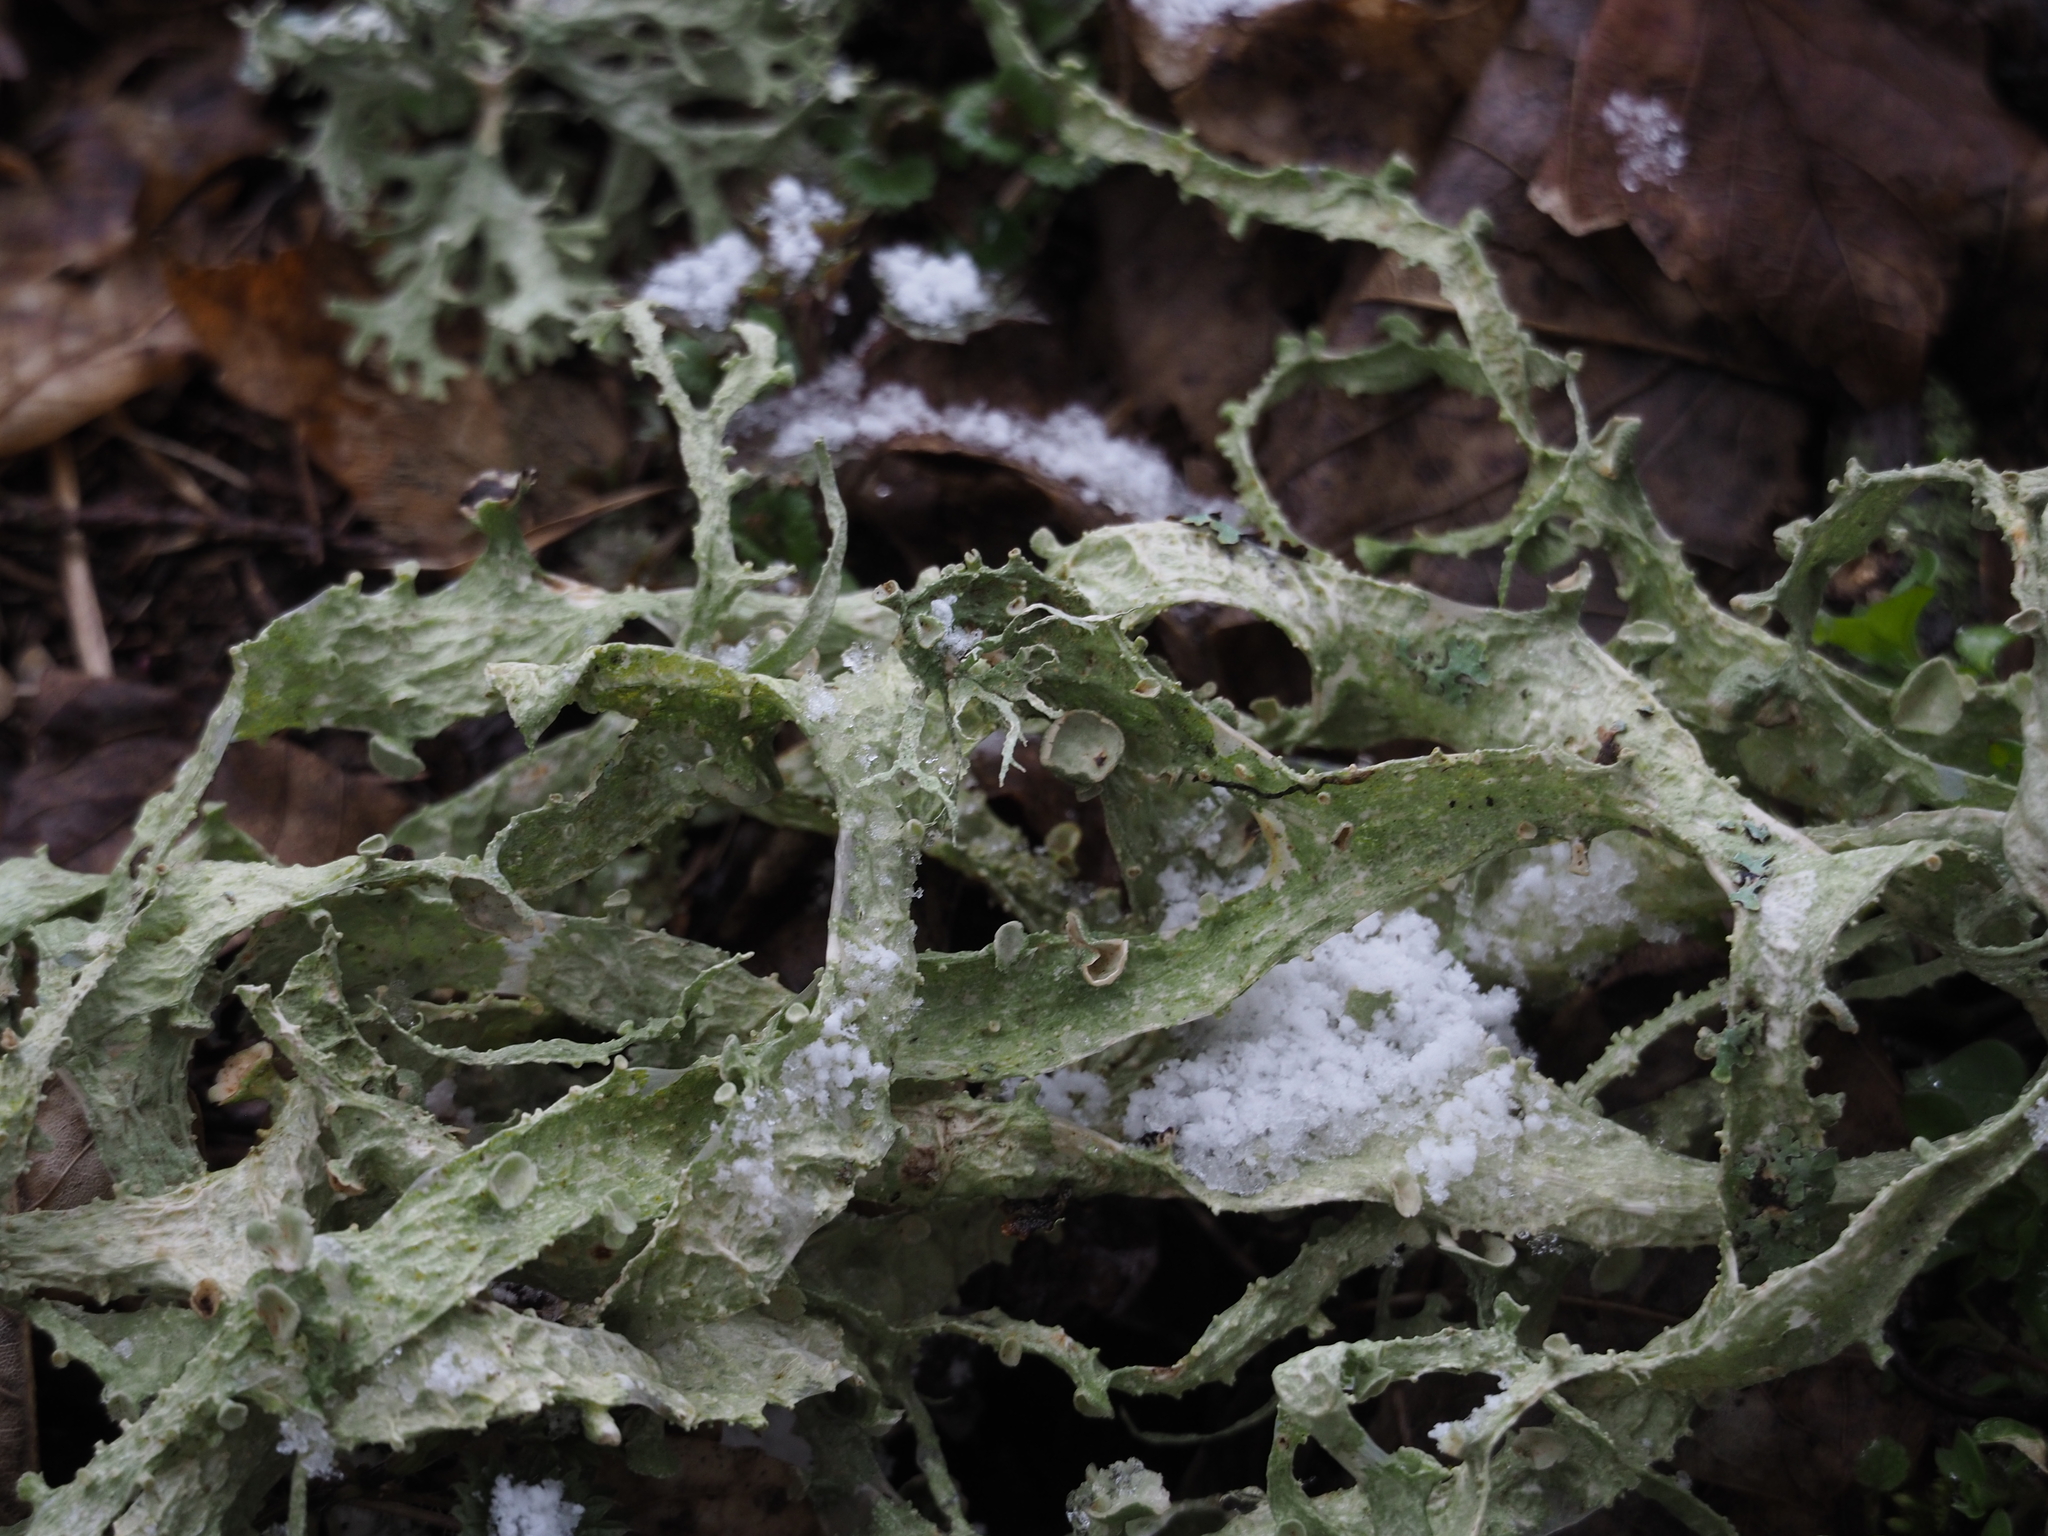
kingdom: Fungi
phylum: Ascomycota
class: Lecanoromycetes
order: Lecanorales
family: Ramalinaceae
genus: Ramalina
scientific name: Ramalina fraxinea
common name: Cartilage lichen
